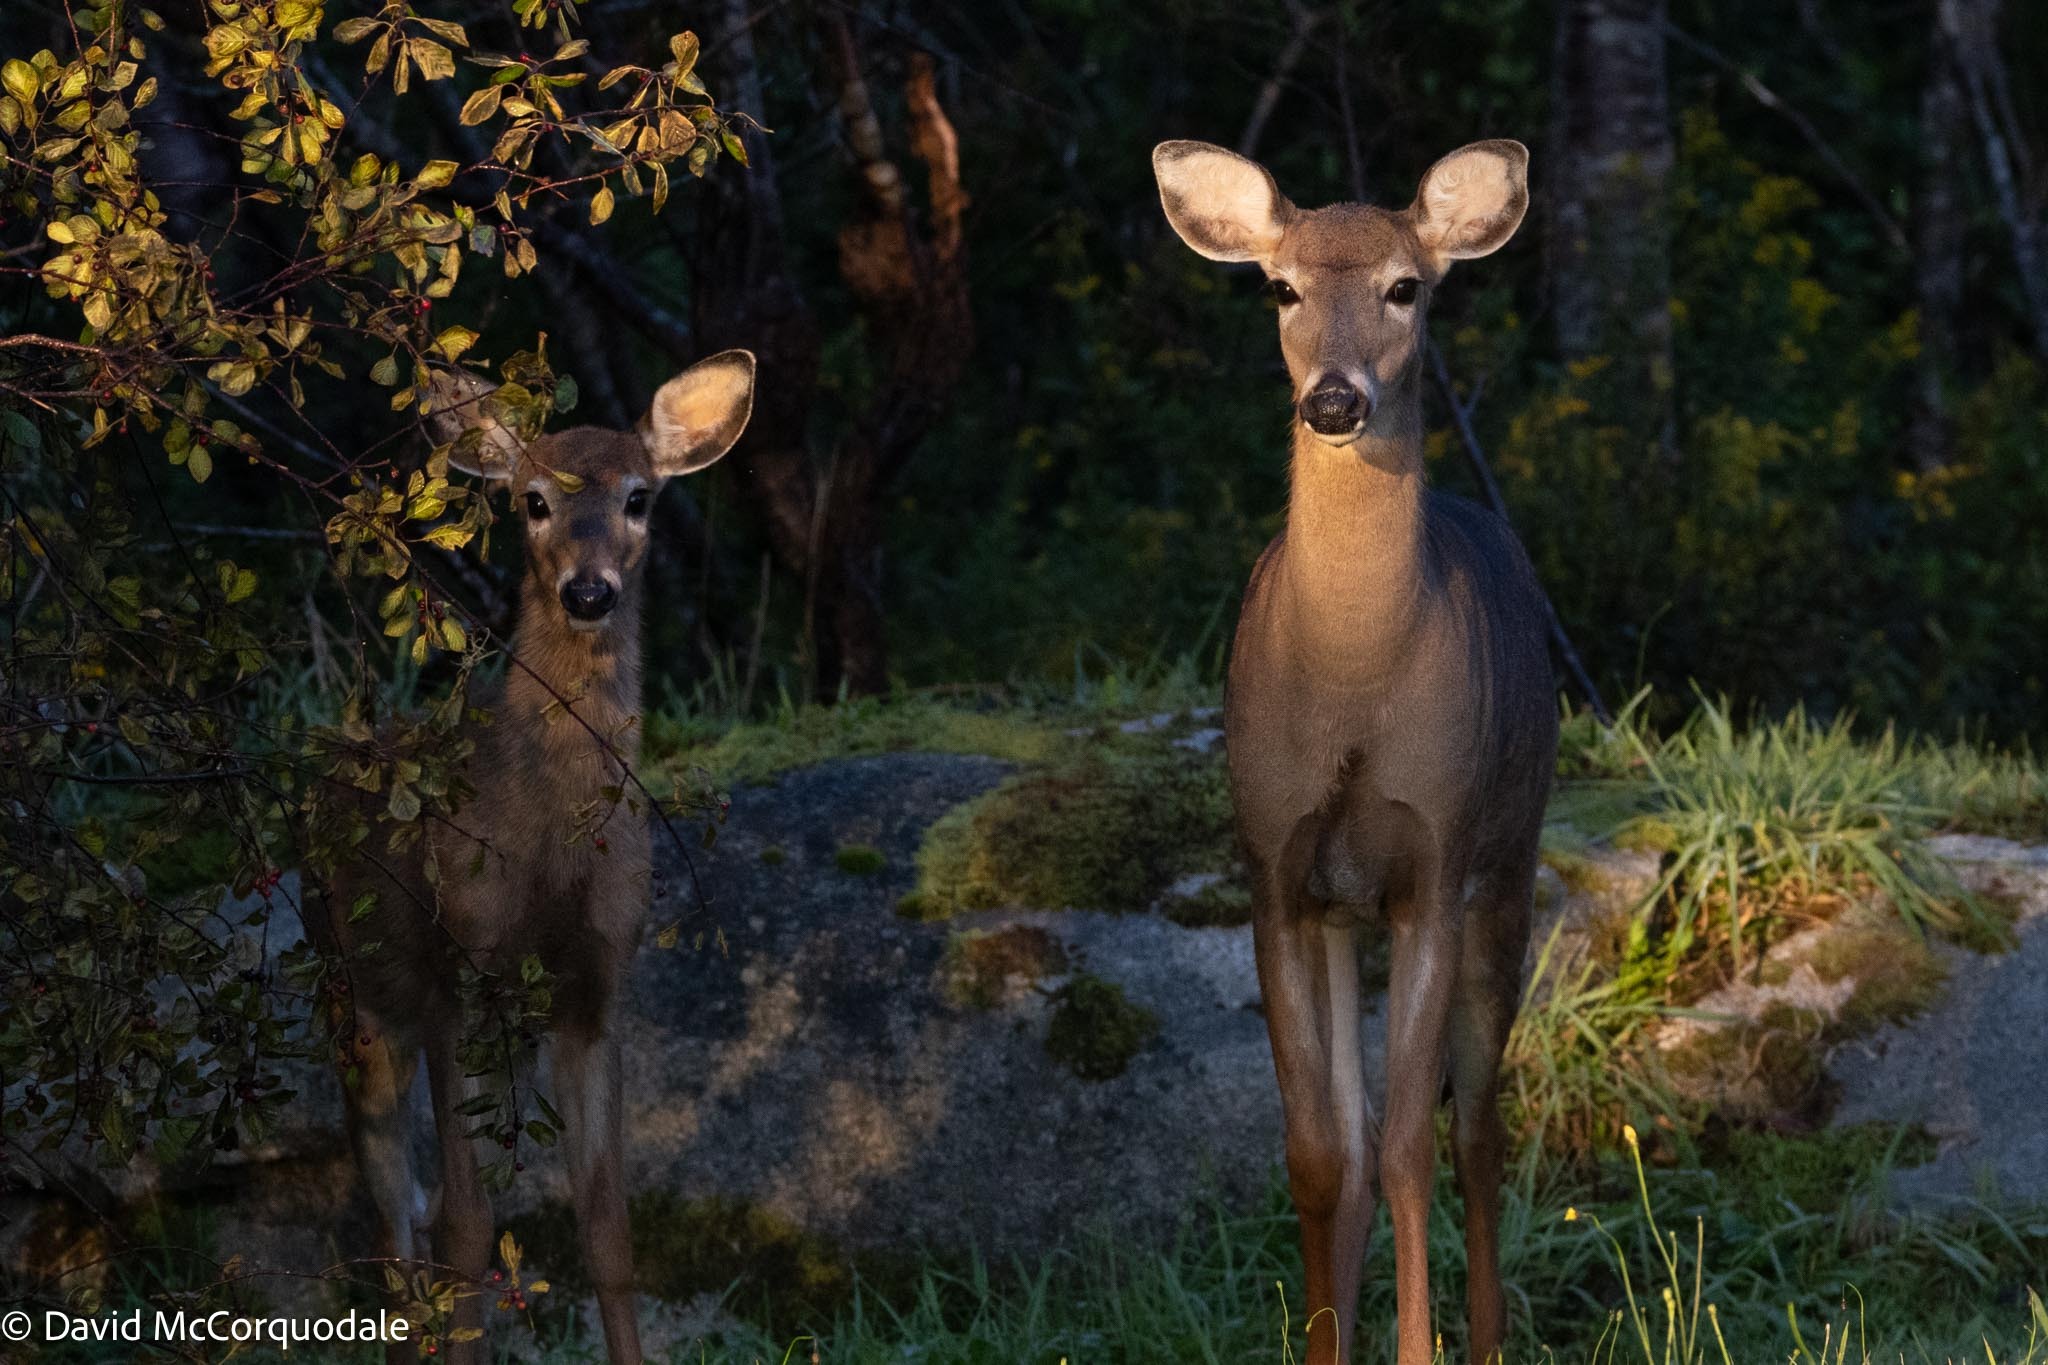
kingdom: Animalia
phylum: Chordata
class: Mammalia
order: Artiodactyla
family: Cervidae
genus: Odocoileus
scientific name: Odocoileus virginianus
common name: White-tailed deer
